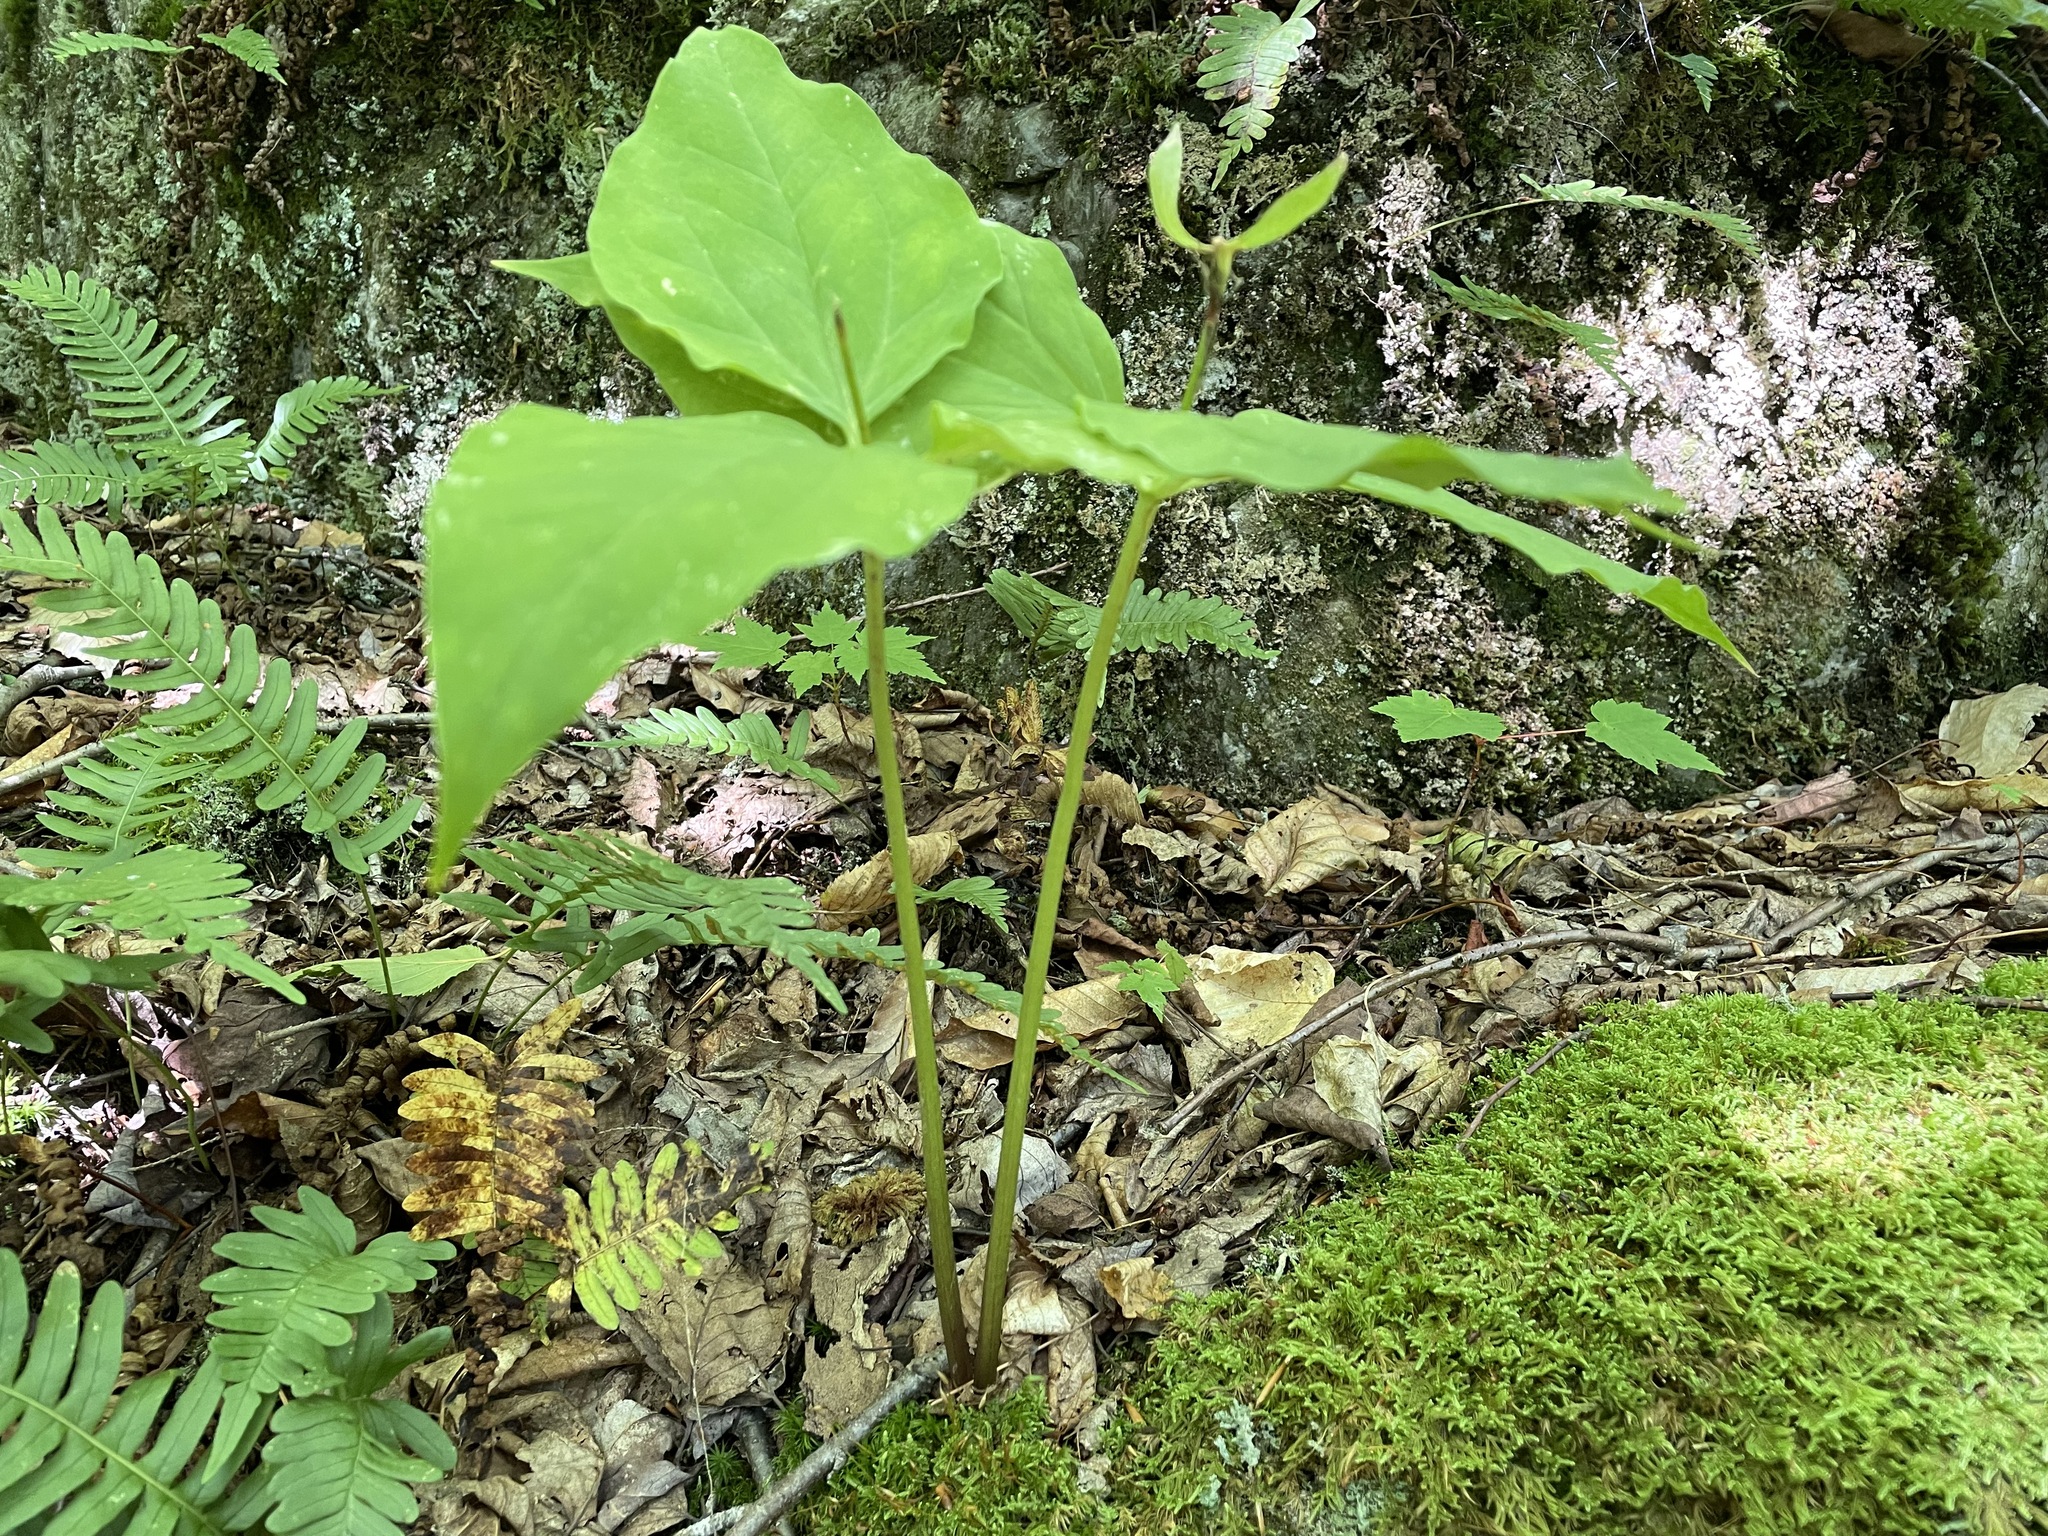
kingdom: Plantae
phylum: Tracheophyta
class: Liliopsida
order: Liliales
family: Melanthiaceae
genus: Trillium
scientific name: Trillium undulatum
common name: Paint trillium
